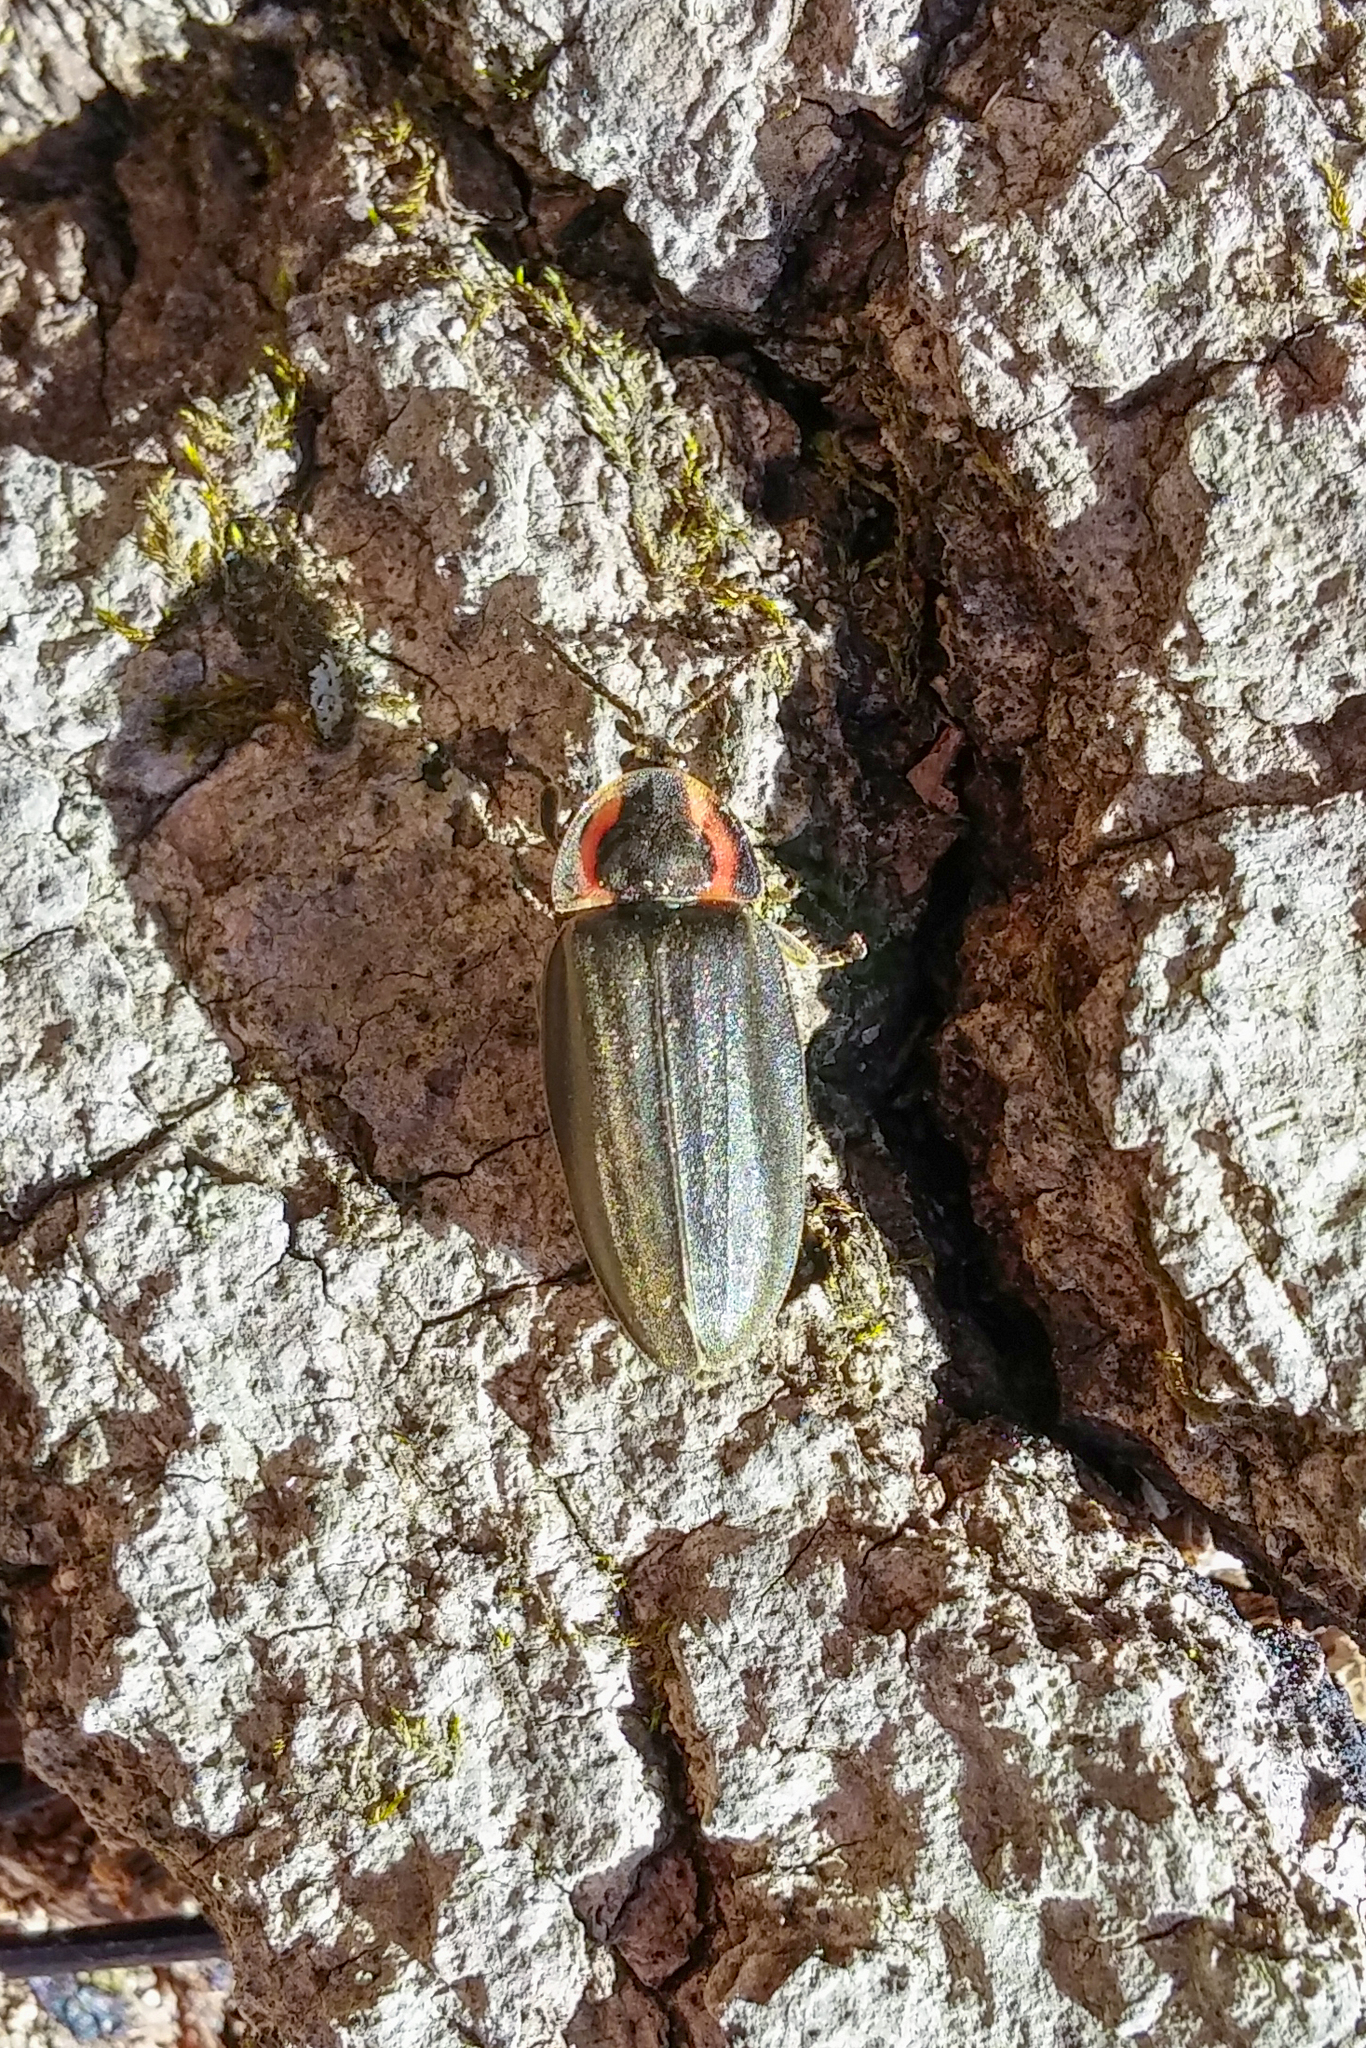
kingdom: Animalia
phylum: Arthropoda
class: Insecta
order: Coleoptera
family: Lampyridae
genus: Photinus
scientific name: Photinus corrusca
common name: Winter firefly
